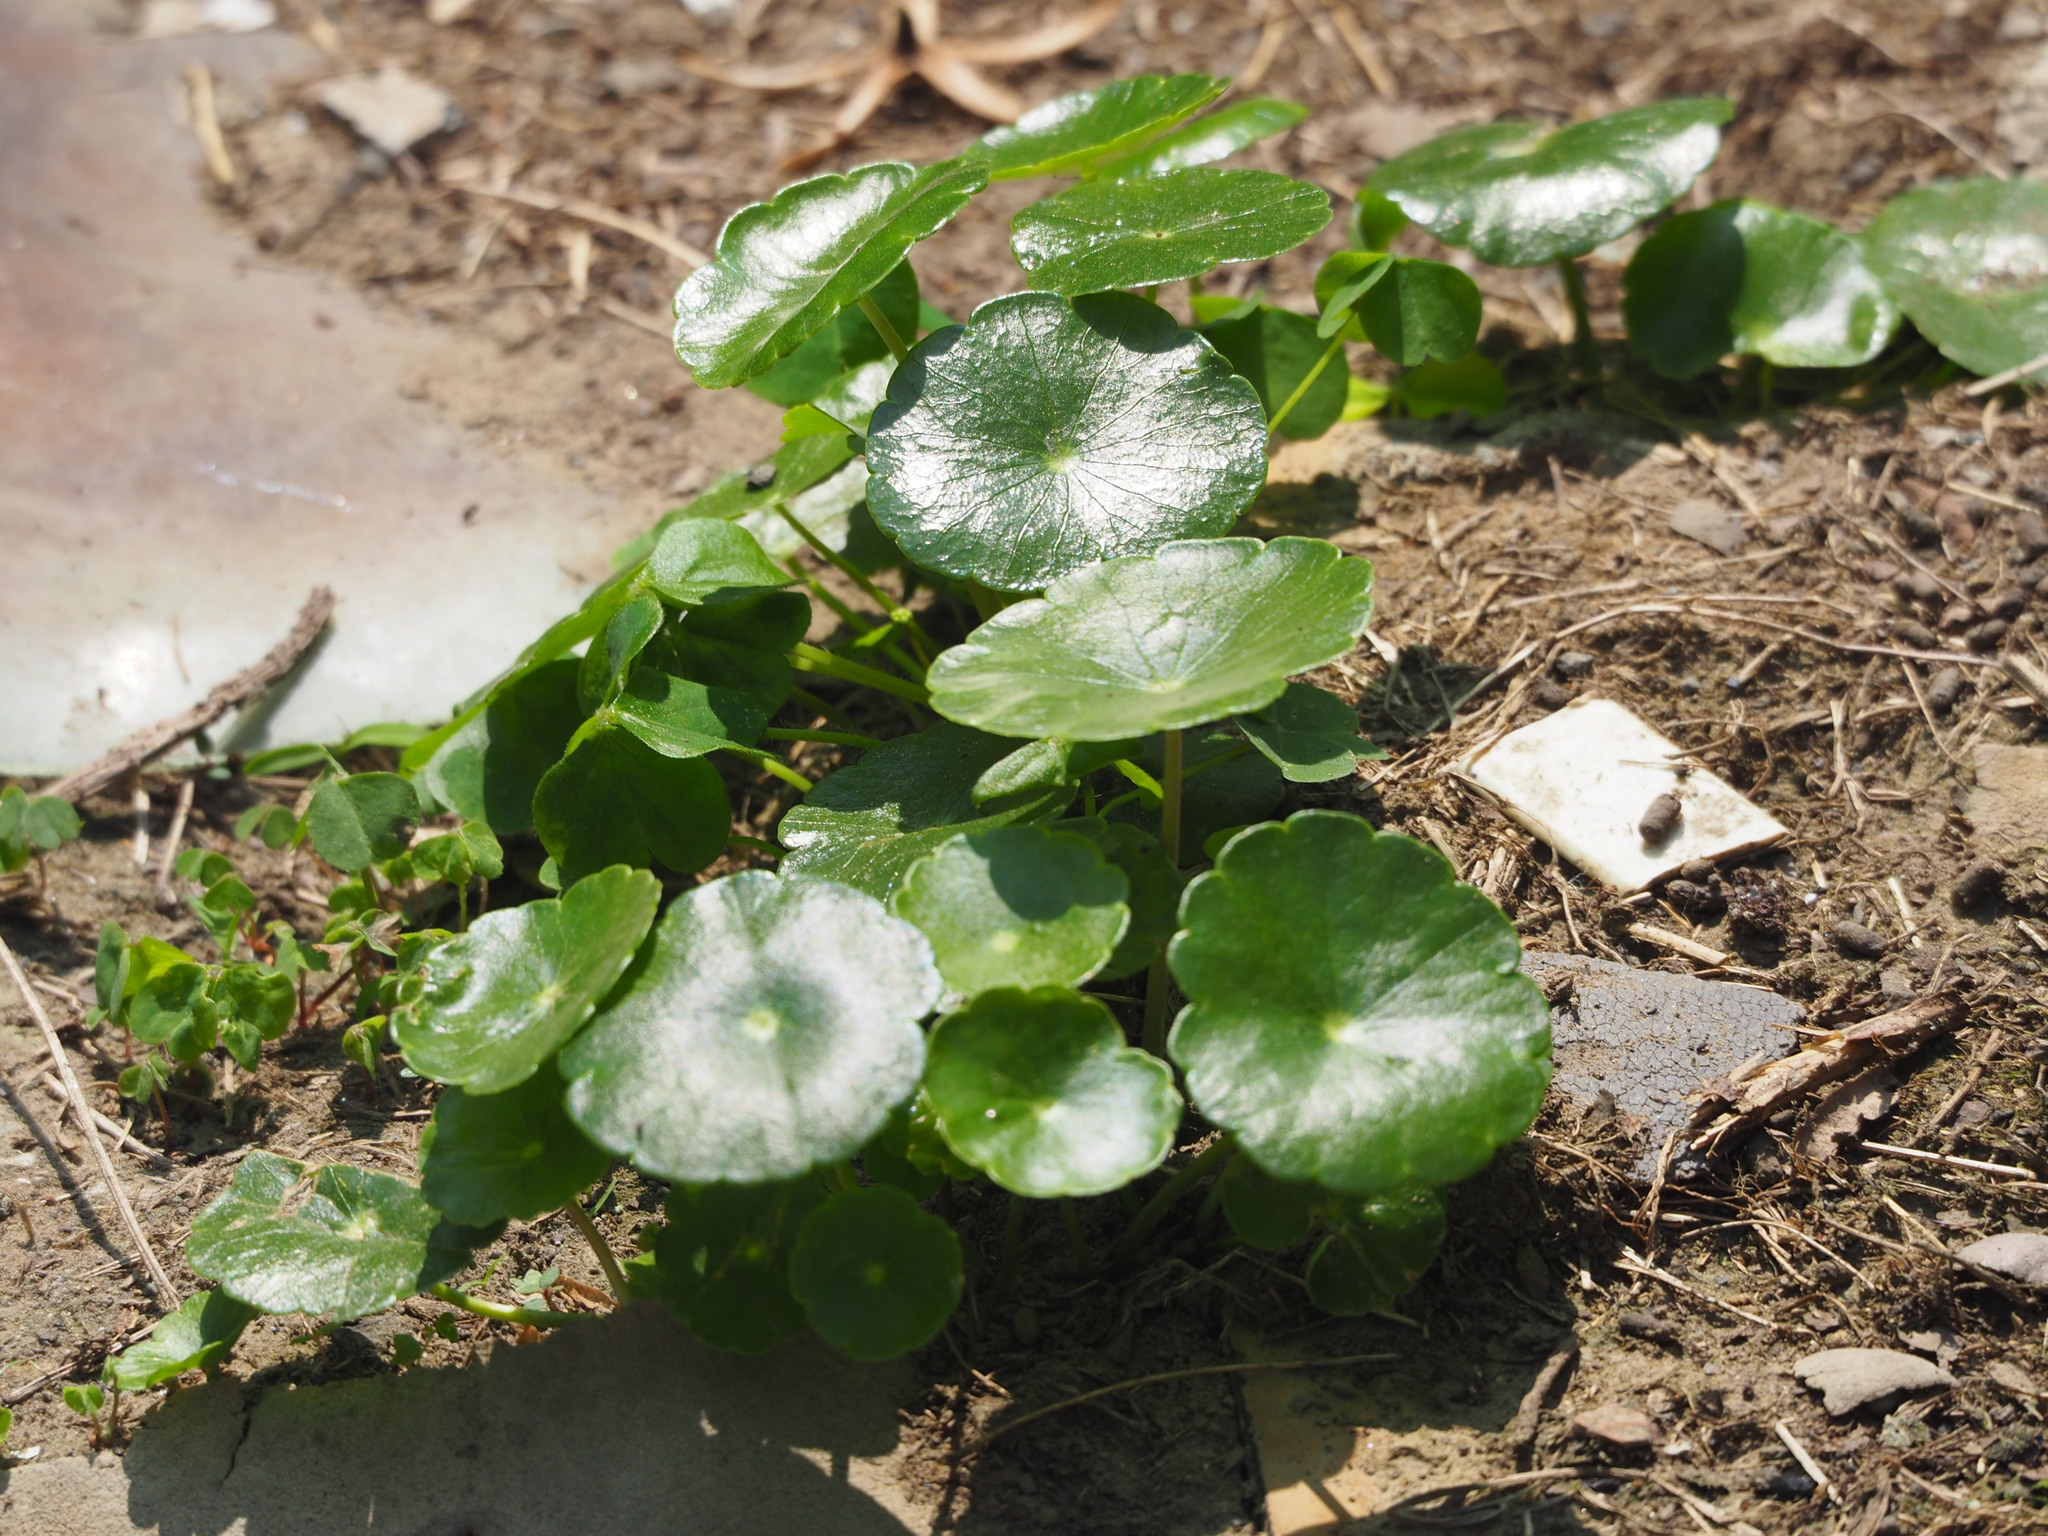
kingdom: Plantae
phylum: Tracheophyta
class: Magnoliopsida
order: Apiales
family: Araliaceae
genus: Hydrocotyle
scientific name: Hydrocotyle verticillata
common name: Whorled marshpennywort
